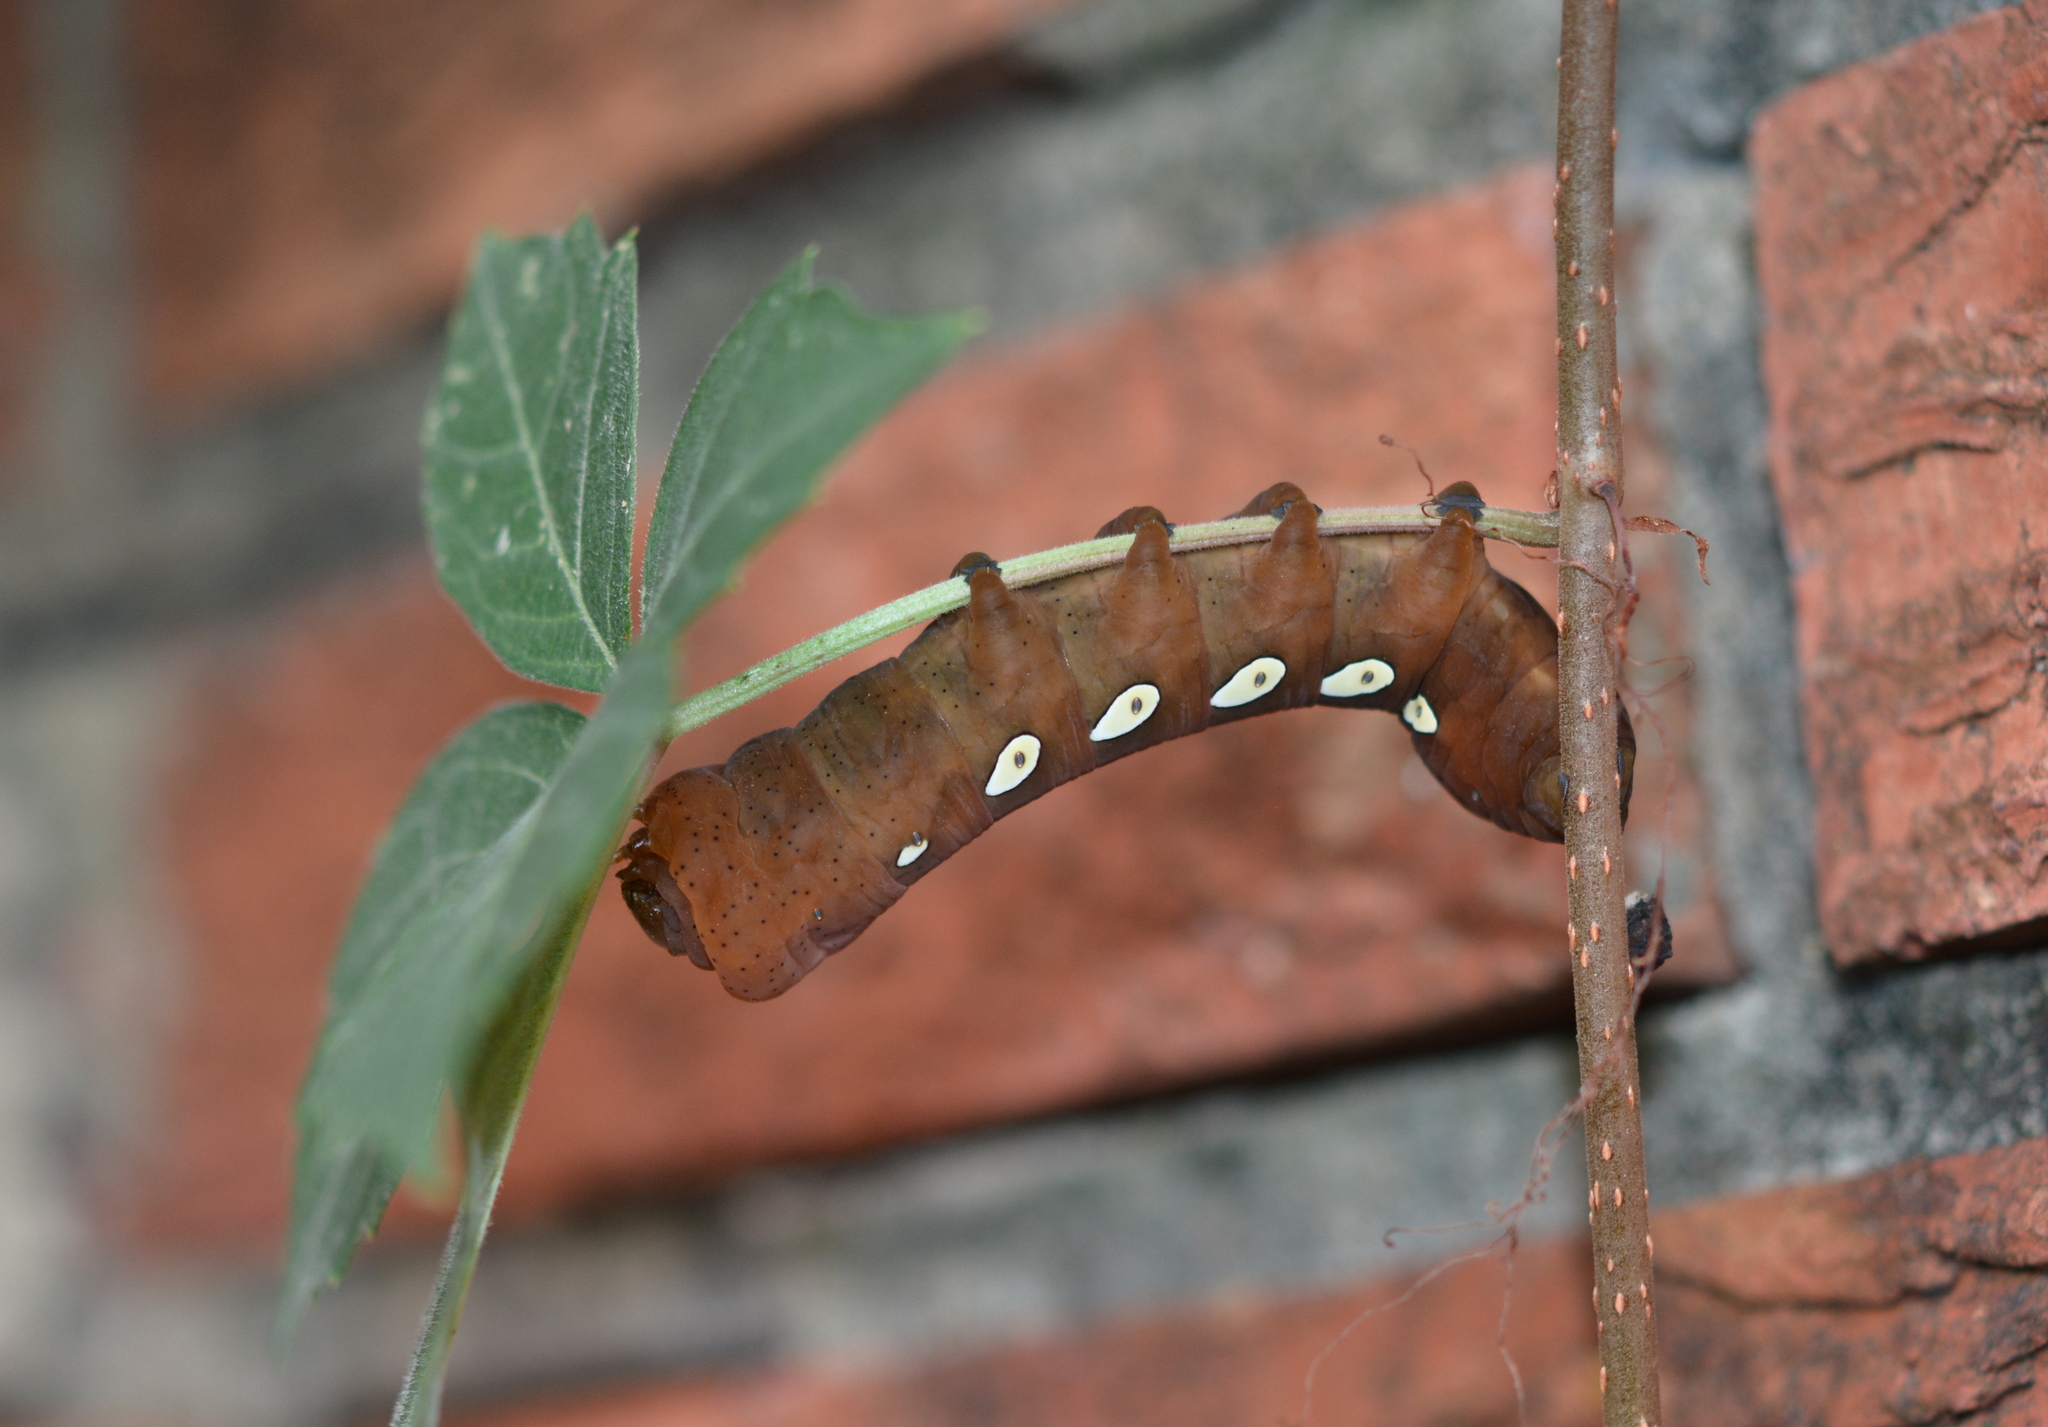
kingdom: Animalia
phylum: Arthropoda
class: Insecta
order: Lepidoptera
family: Sphingidae
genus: Eumorpha
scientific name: Eumorpha pandorus
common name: Pandora sphinx
